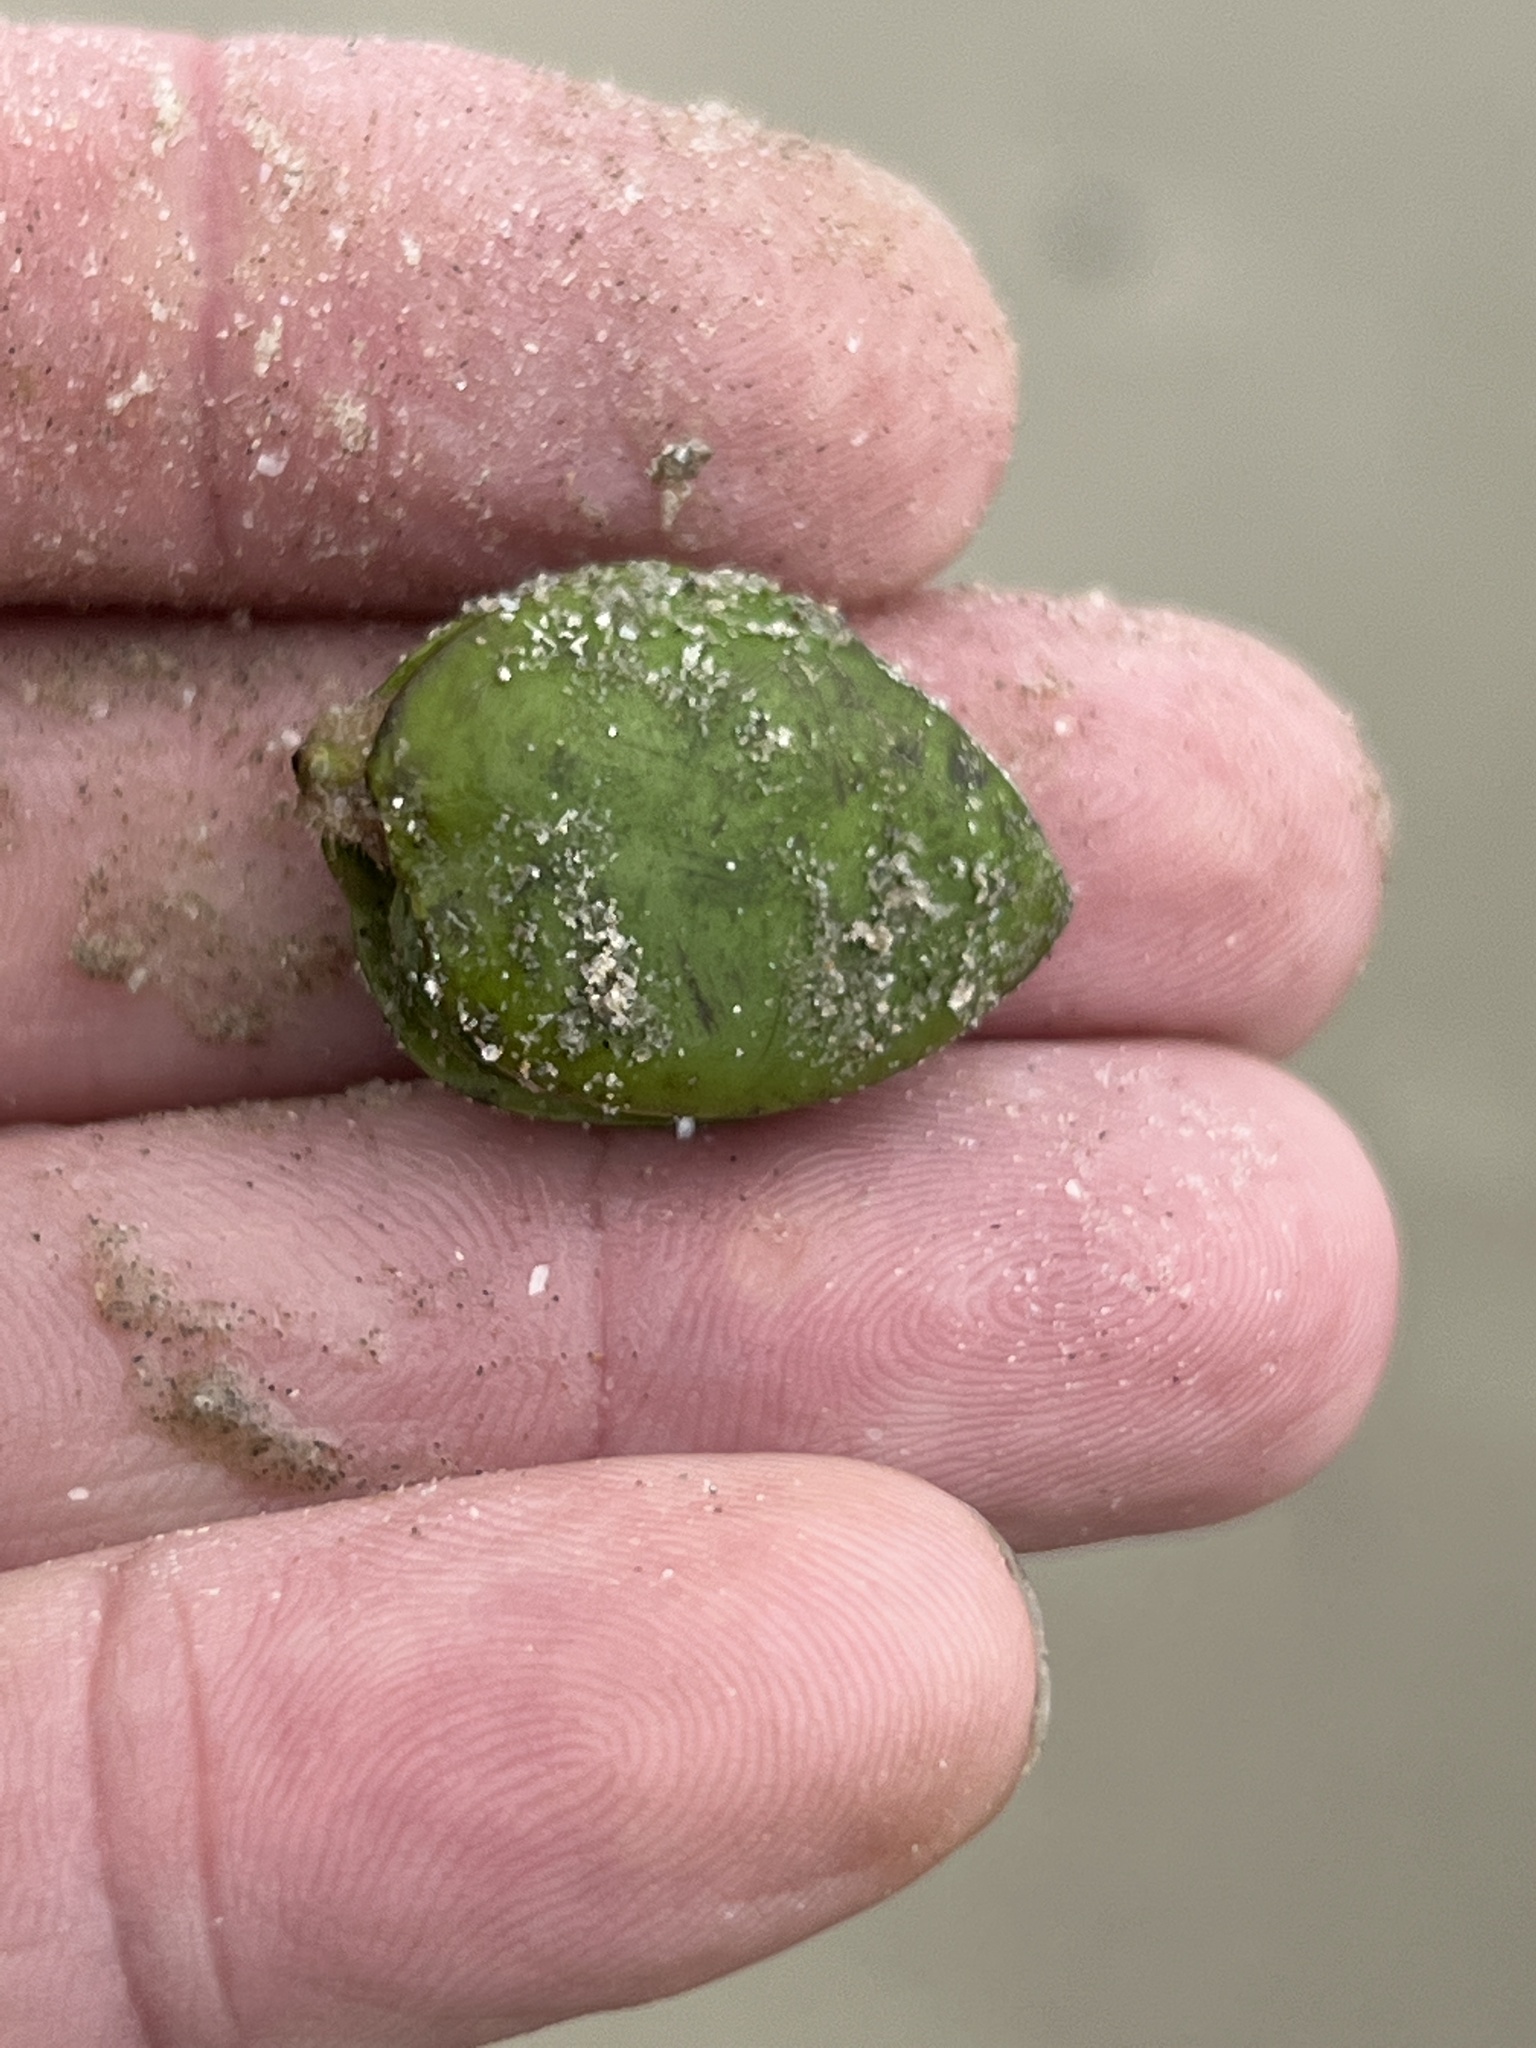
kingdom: Plantae
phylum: Tracheophyta
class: Magnoliopsida
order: Lamiales
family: Acanthaceae
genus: Avicennia
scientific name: Avicennia germinans
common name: Black mangrove
